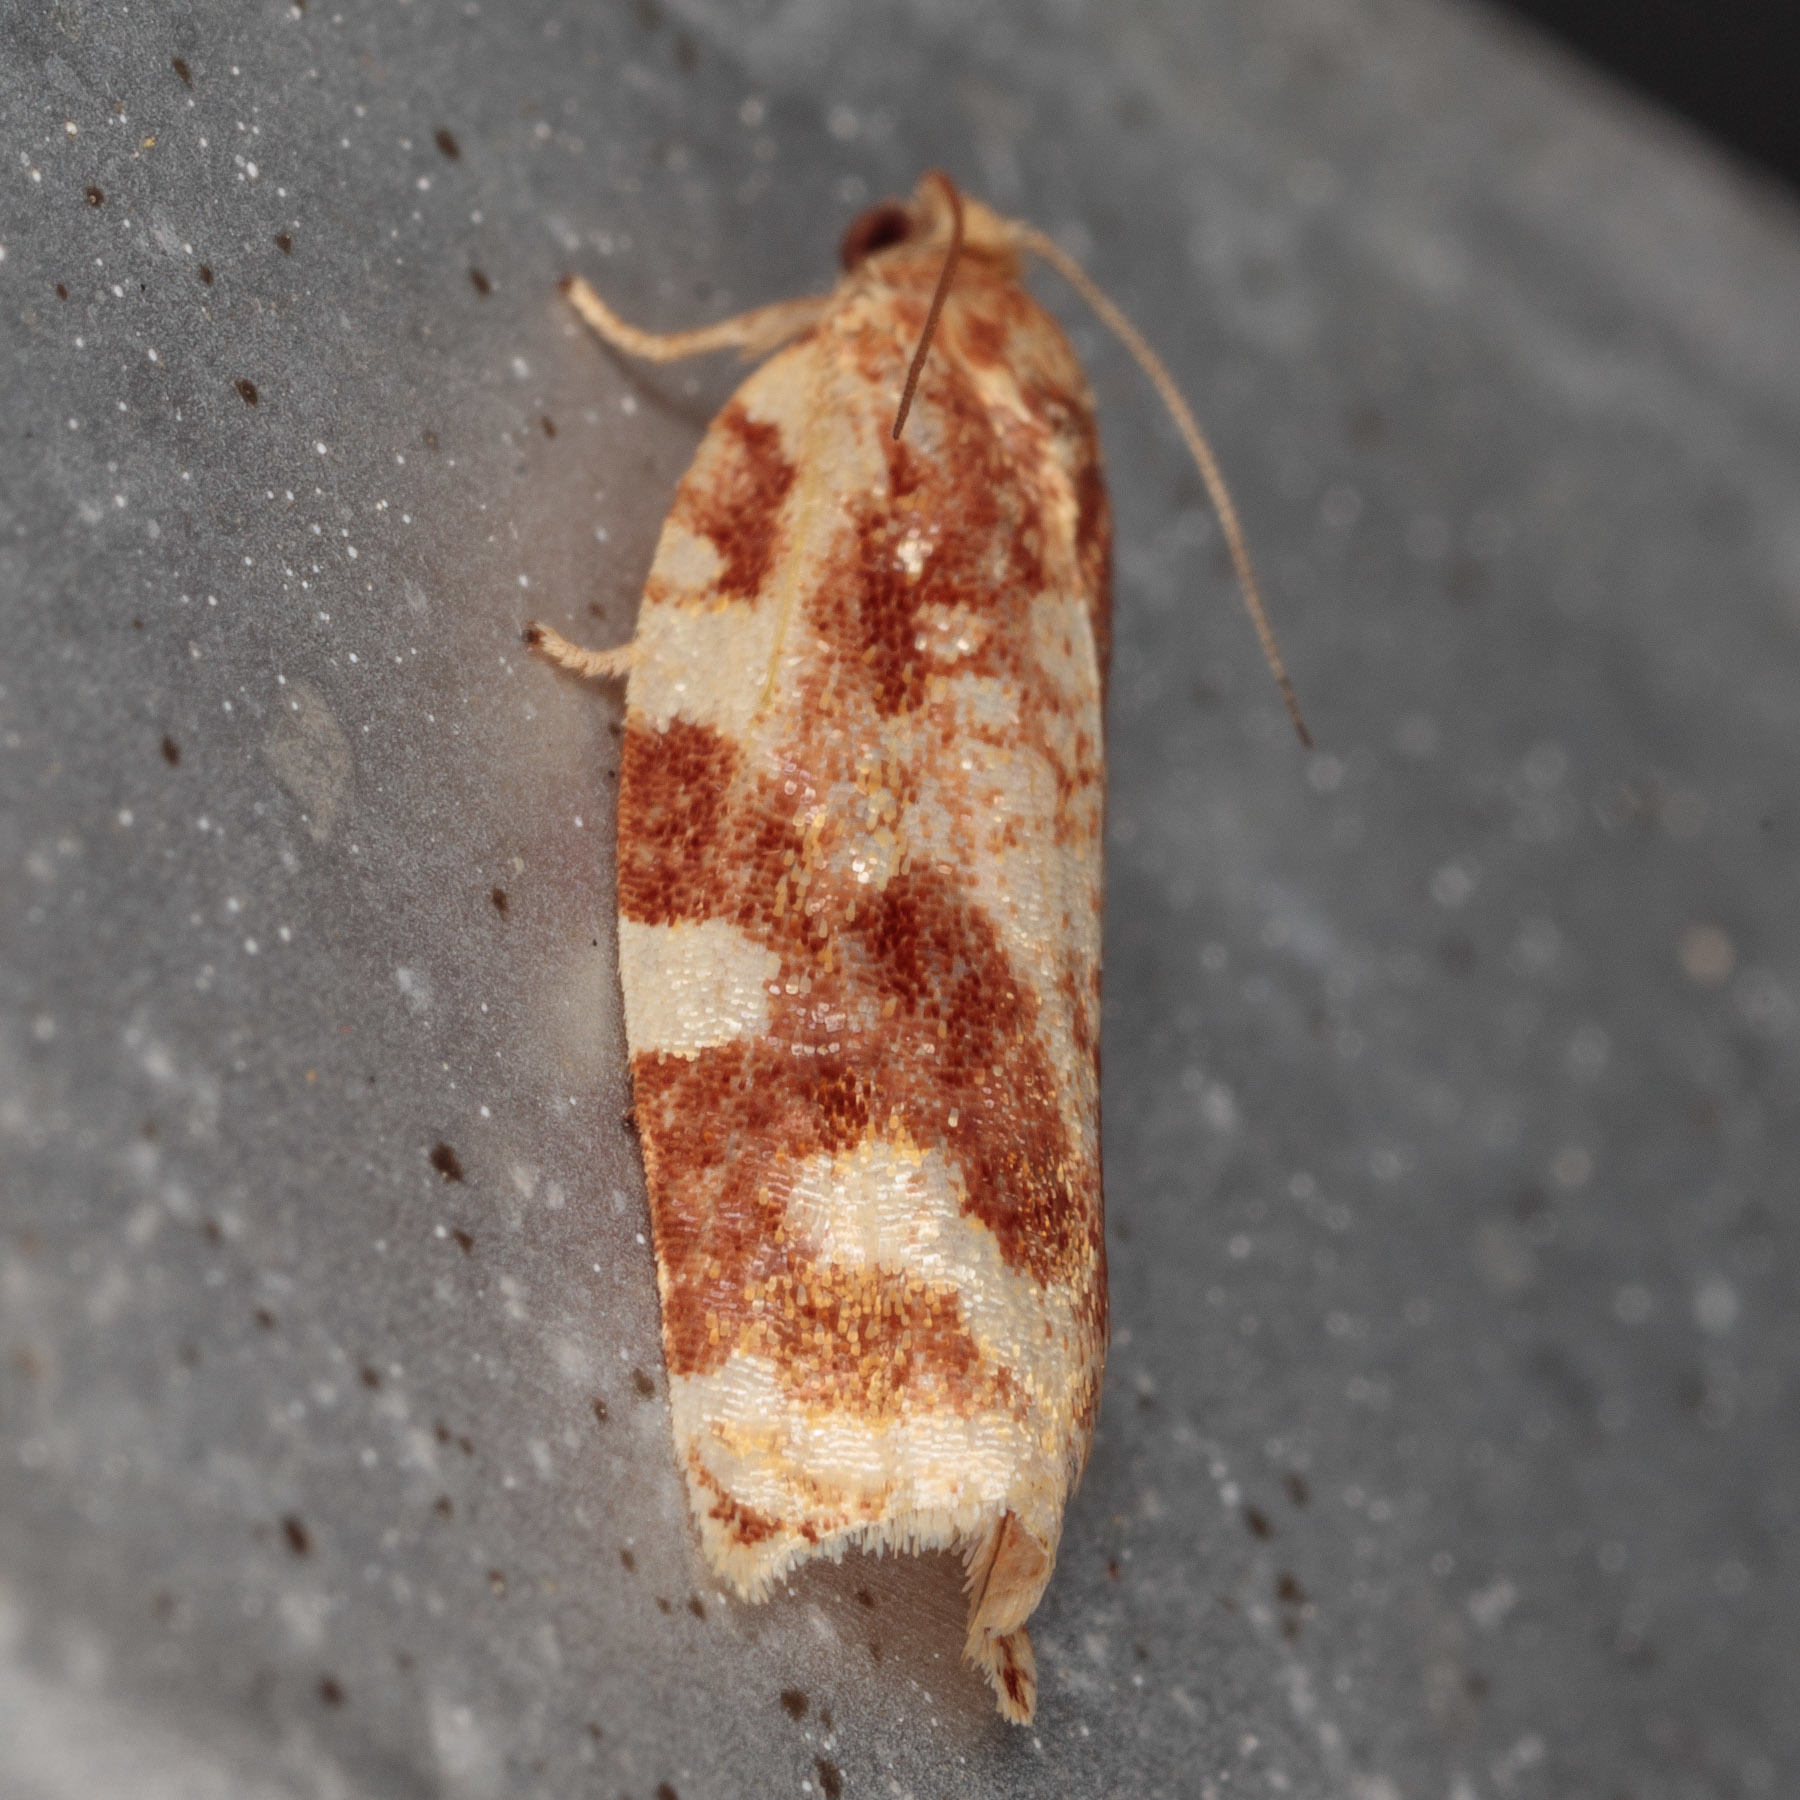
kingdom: Animalia
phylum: Arthropoda
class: Insecta
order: Lepidoptera
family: Tortricidae
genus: Archips
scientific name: Archips argyrospila
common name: Fruit-tree leafroller moth
